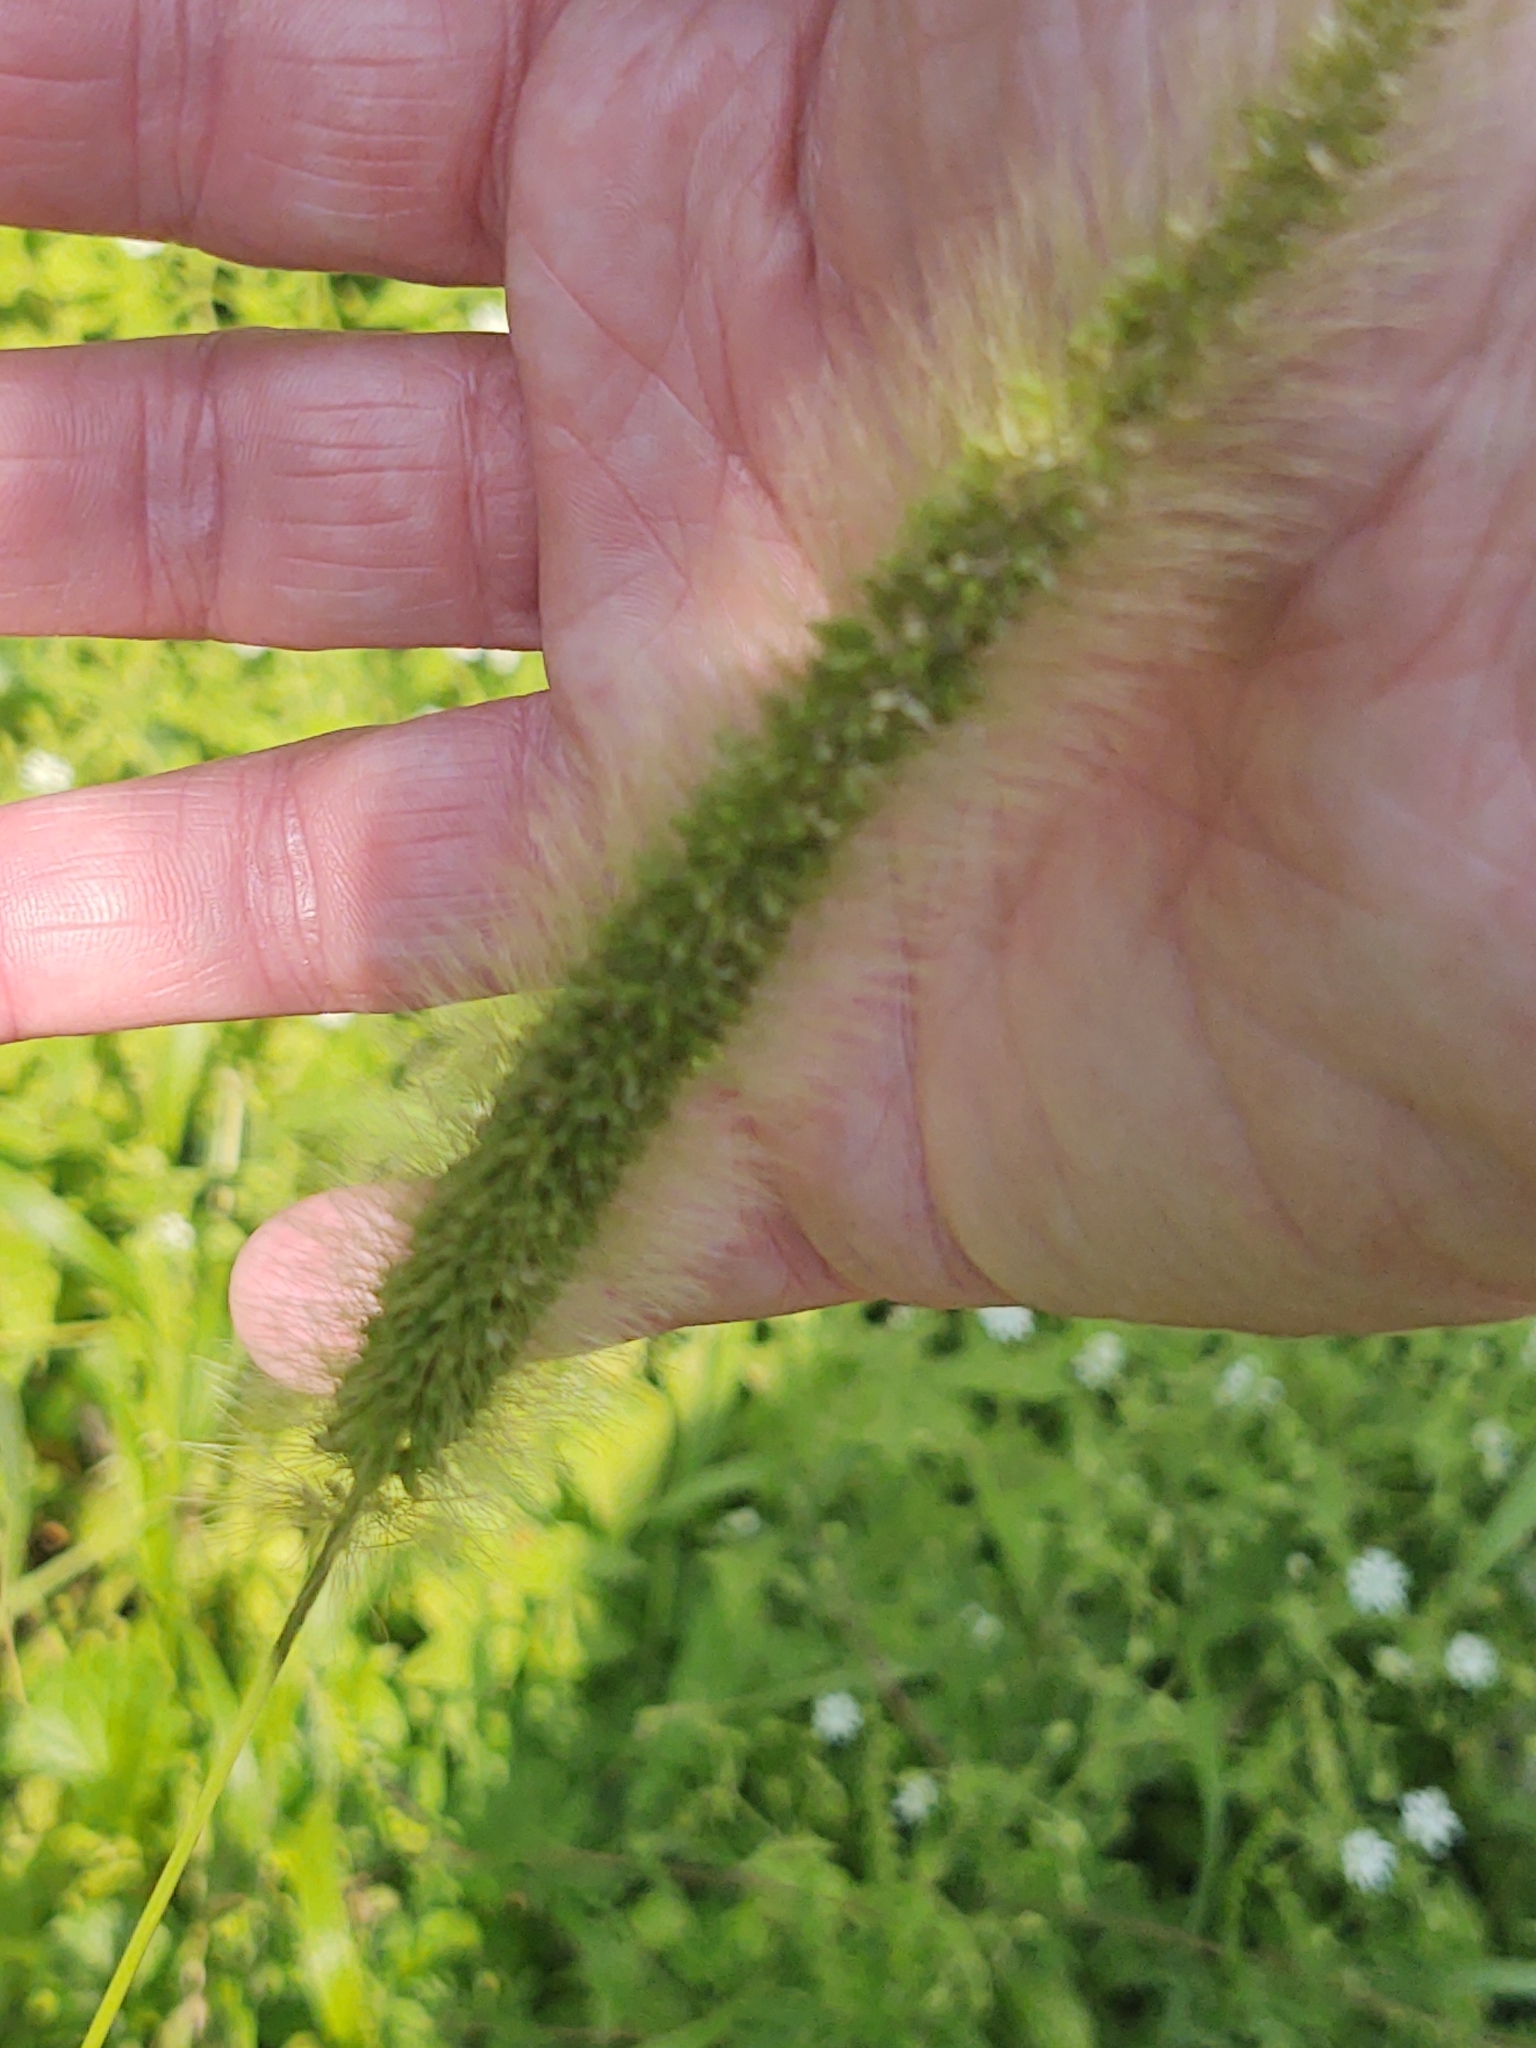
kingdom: Plantae
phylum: Tracheophyta
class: Liliopsida
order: Poales
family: Poaceae
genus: Setaria
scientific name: Setaria faberi
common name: Nodding bristle-grass
